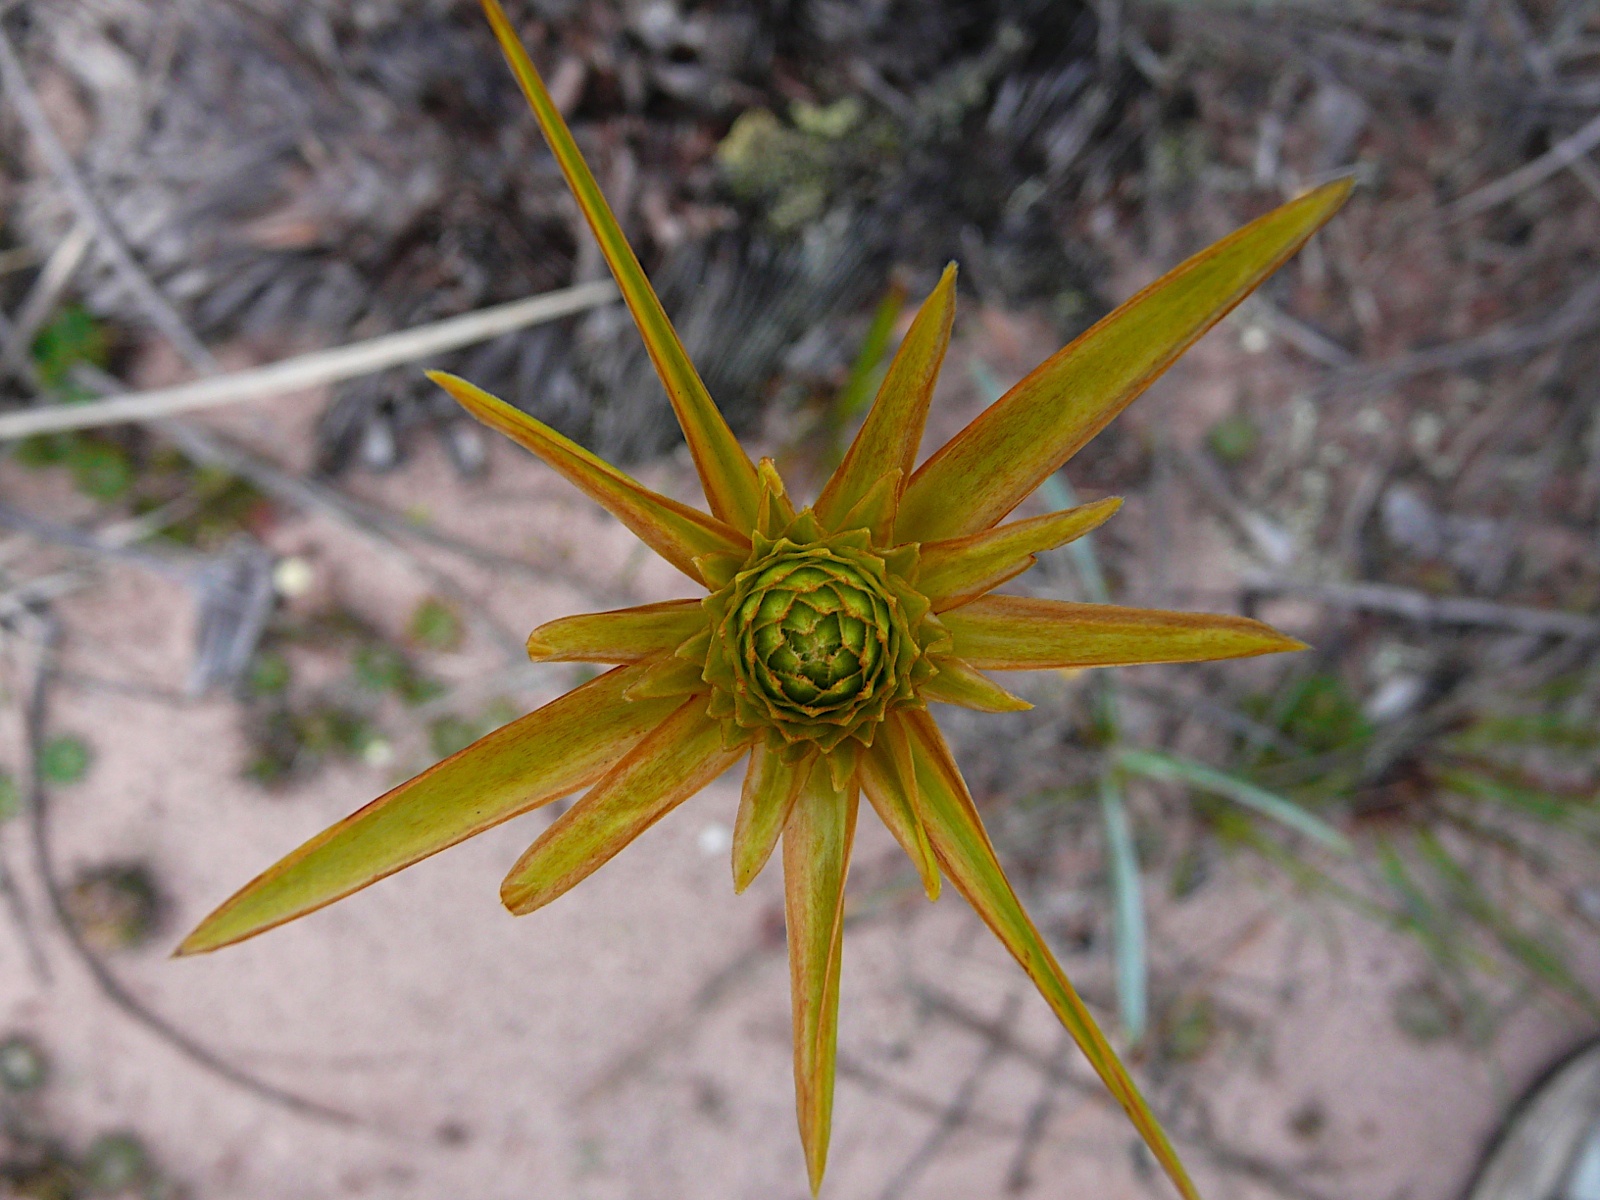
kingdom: Plantae
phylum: Tracheophyta
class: Liliopsida
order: Poales
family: Xyridaceae
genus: Xyris
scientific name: Xyris involucrata
